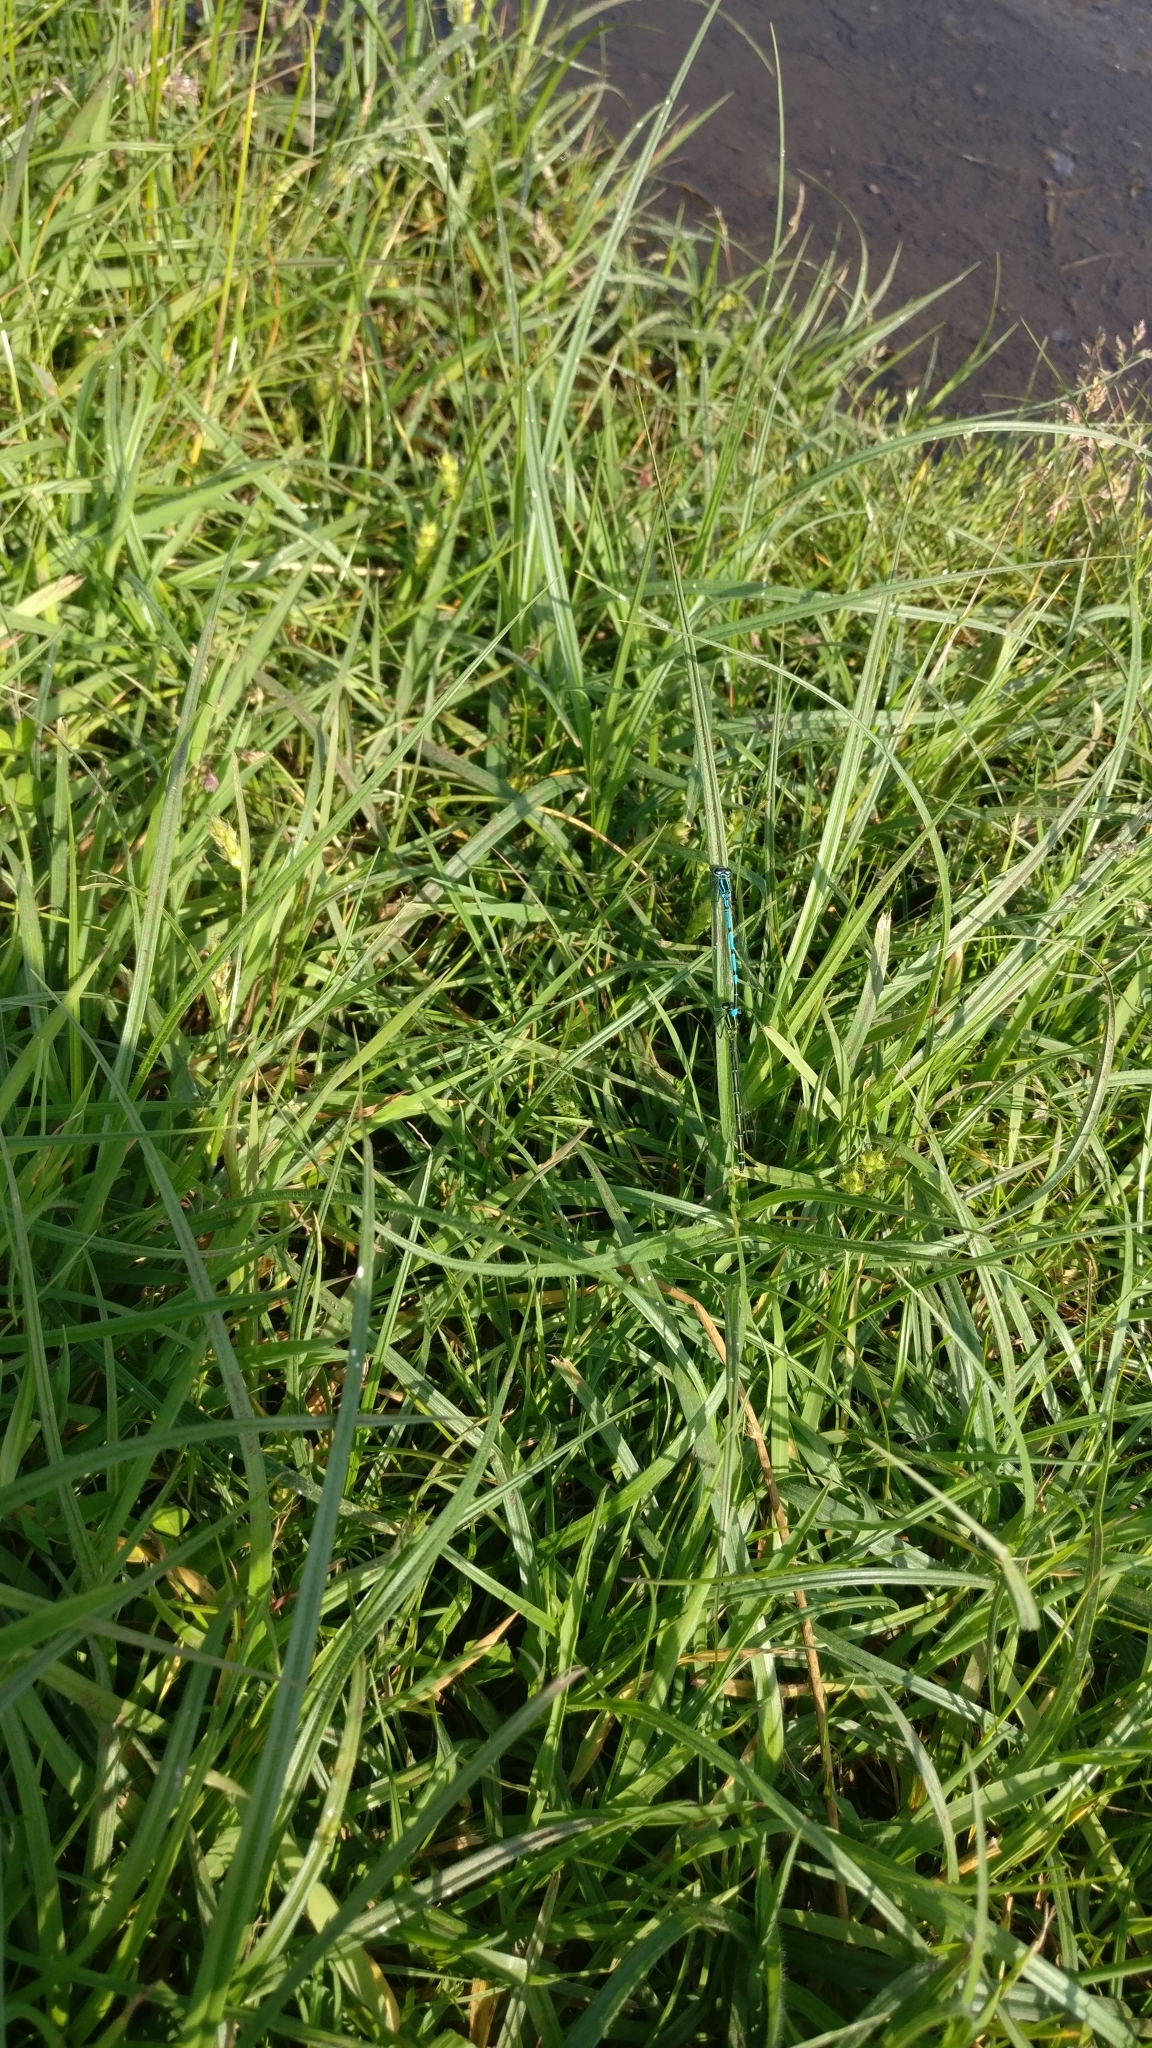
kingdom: Animalia
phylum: Arthropoda
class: Insecta
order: Odonata
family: Coenagrionidae
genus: Coenagrion
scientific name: Coenagrion puella
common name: Azure damselfly
